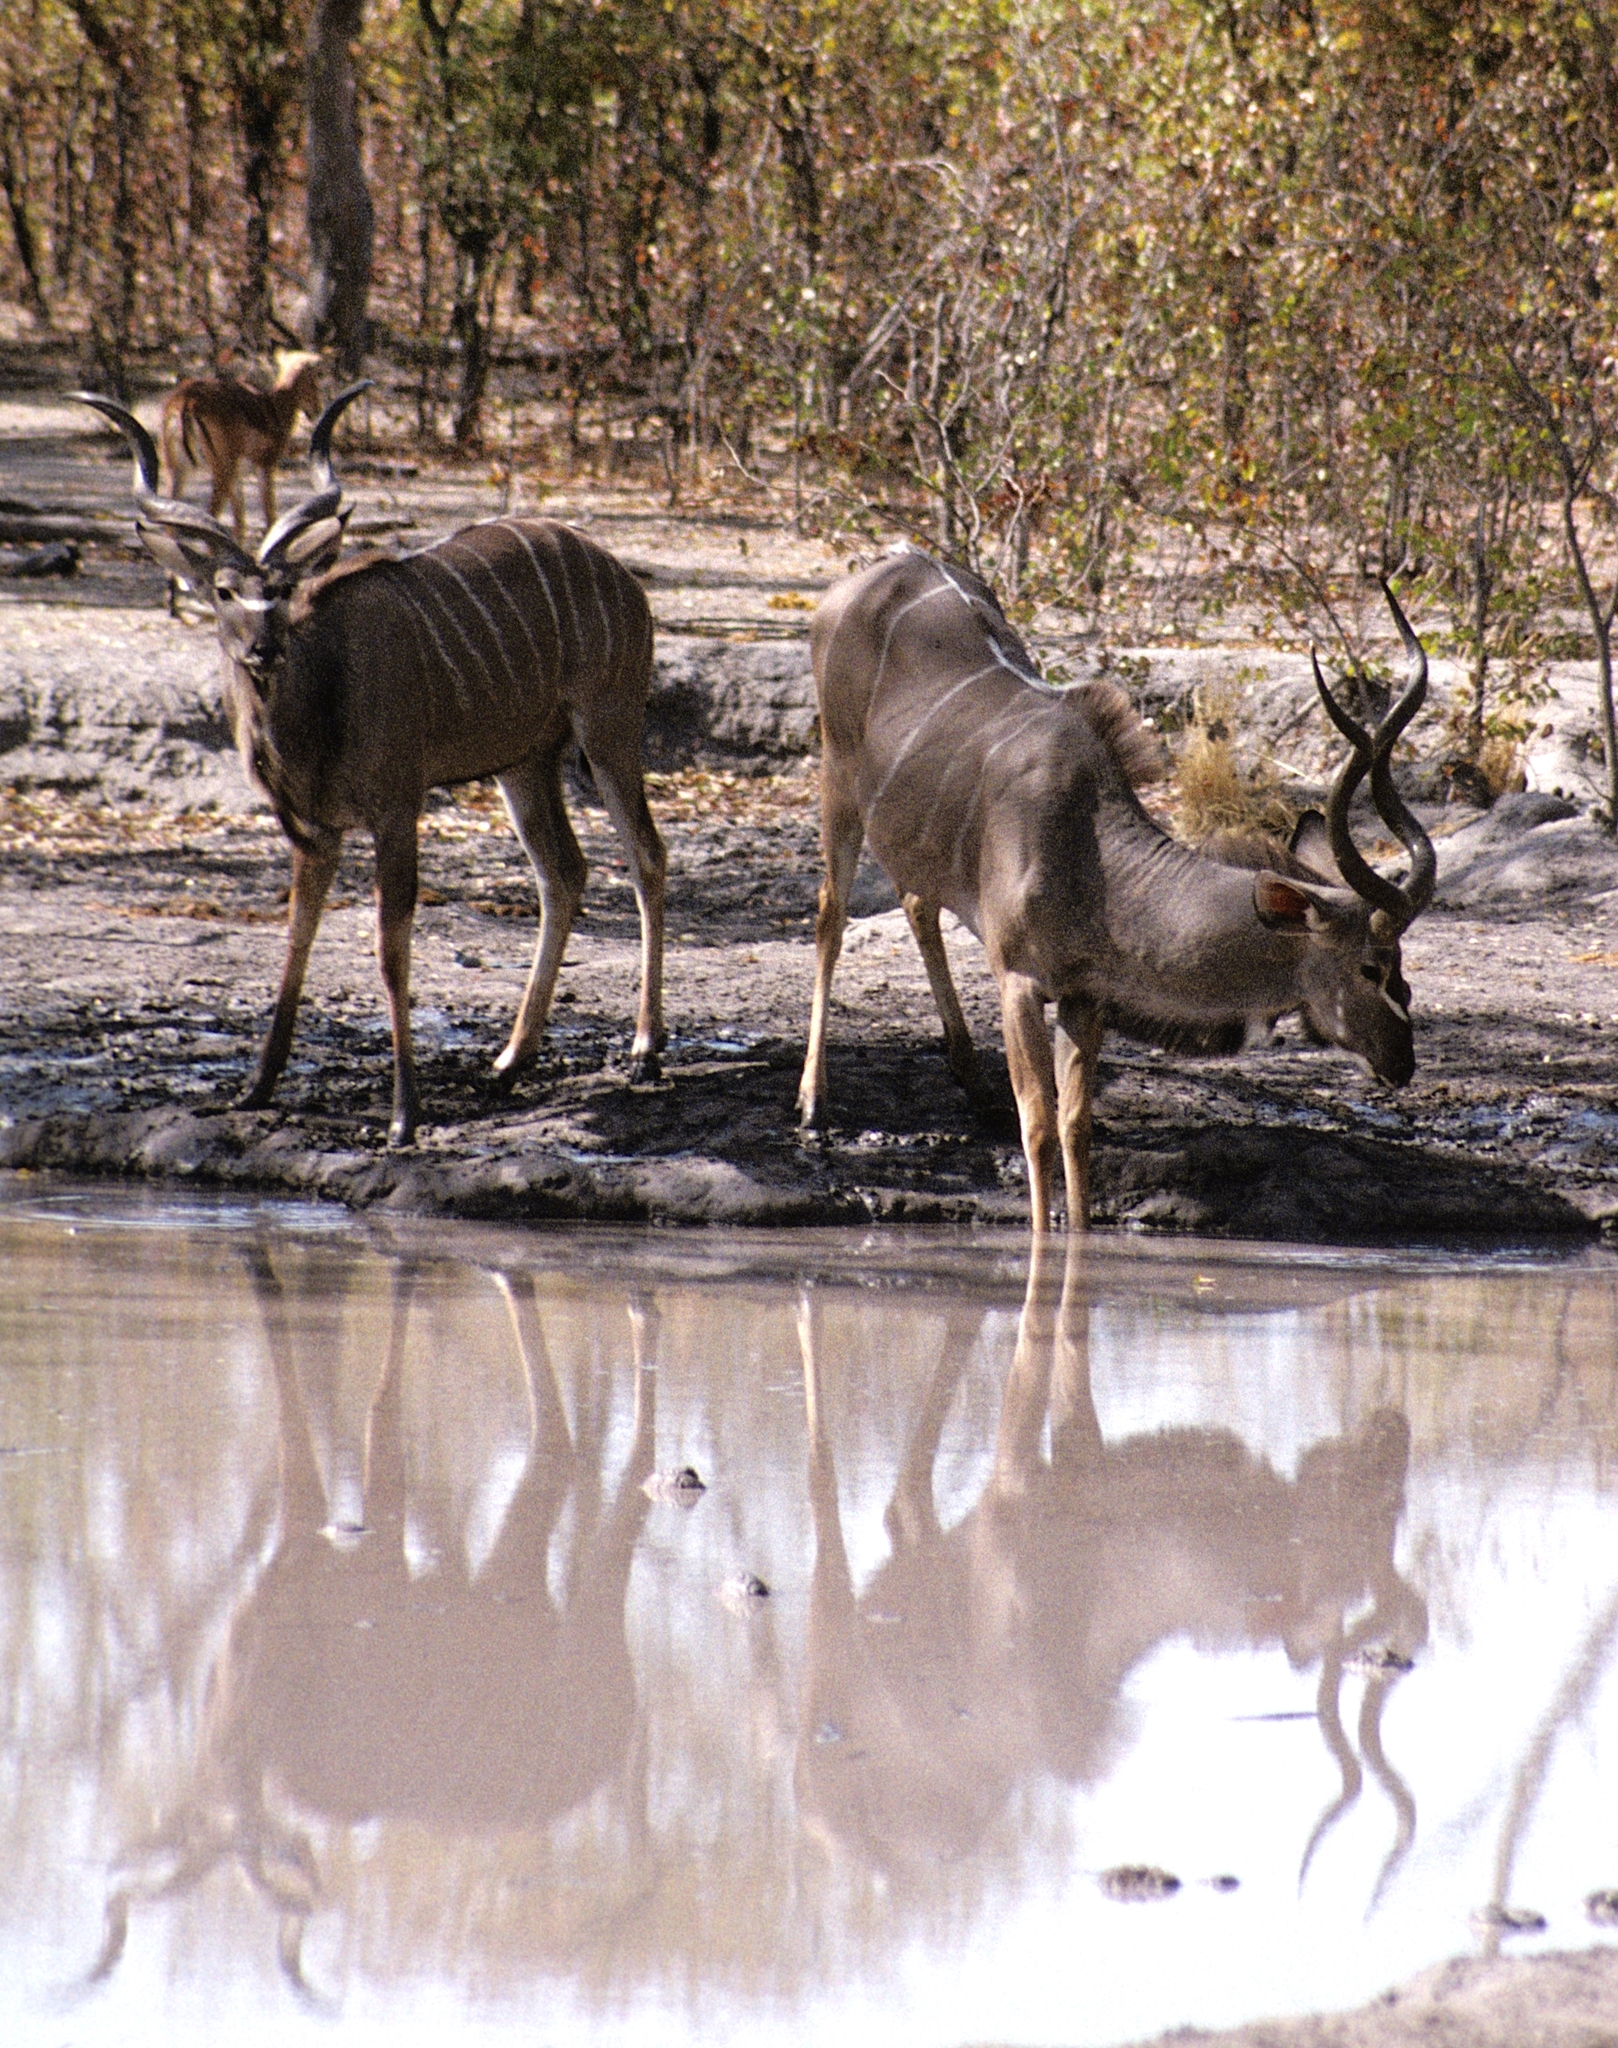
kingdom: Animalia
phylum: Chordata
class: Mammalia
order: Artiodactyla
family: Bovidae
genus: Tragelaphus
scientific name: Tragelaphus strepsiceros
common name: Greater kudu
